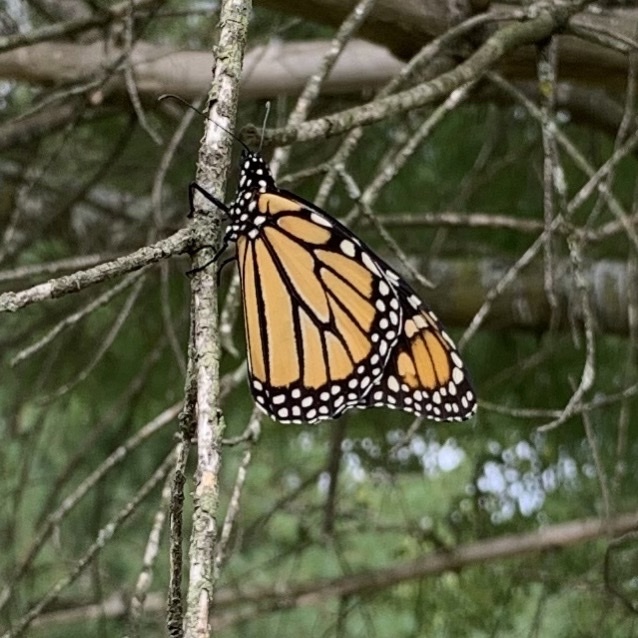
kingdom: Animalia
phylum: Arthropoda
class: Insecta
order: Lepidoptera
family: Nymphalidae
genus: Danaus
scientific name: Danaus plexippus
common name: Monarch
